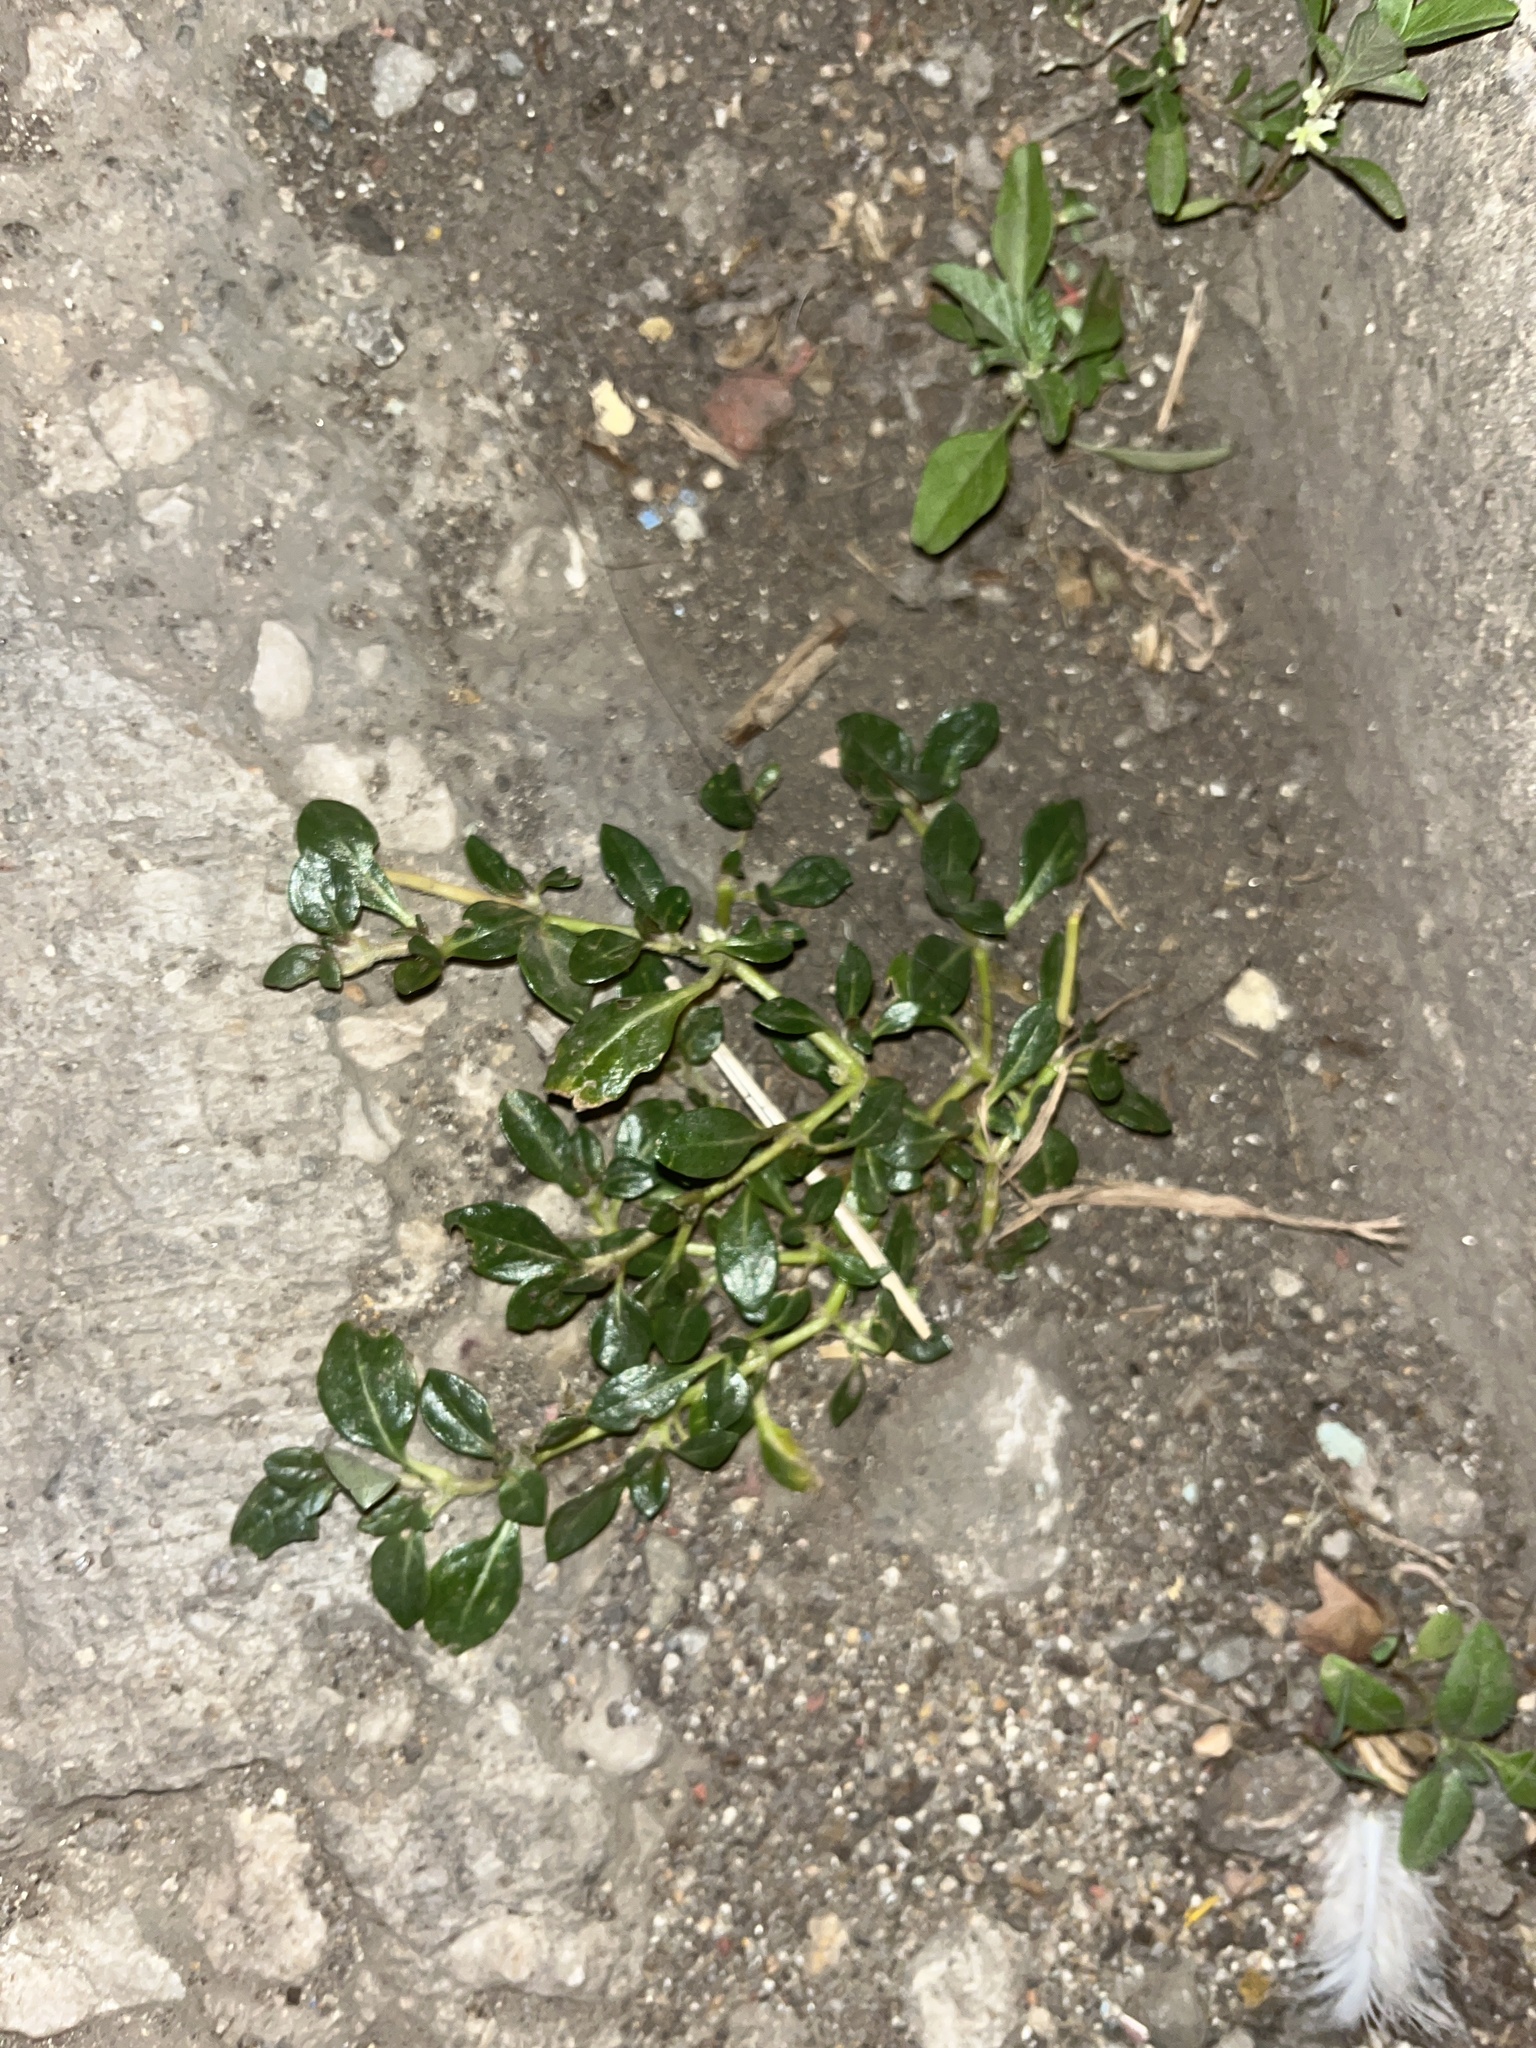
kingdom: Plantae
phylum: Tracheophyta
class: Magnoliopsida
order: Caryophyllales
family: Amaranthaceae
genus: Alternanthera
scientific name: Alternanthera caracasana
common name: Washerwoman
